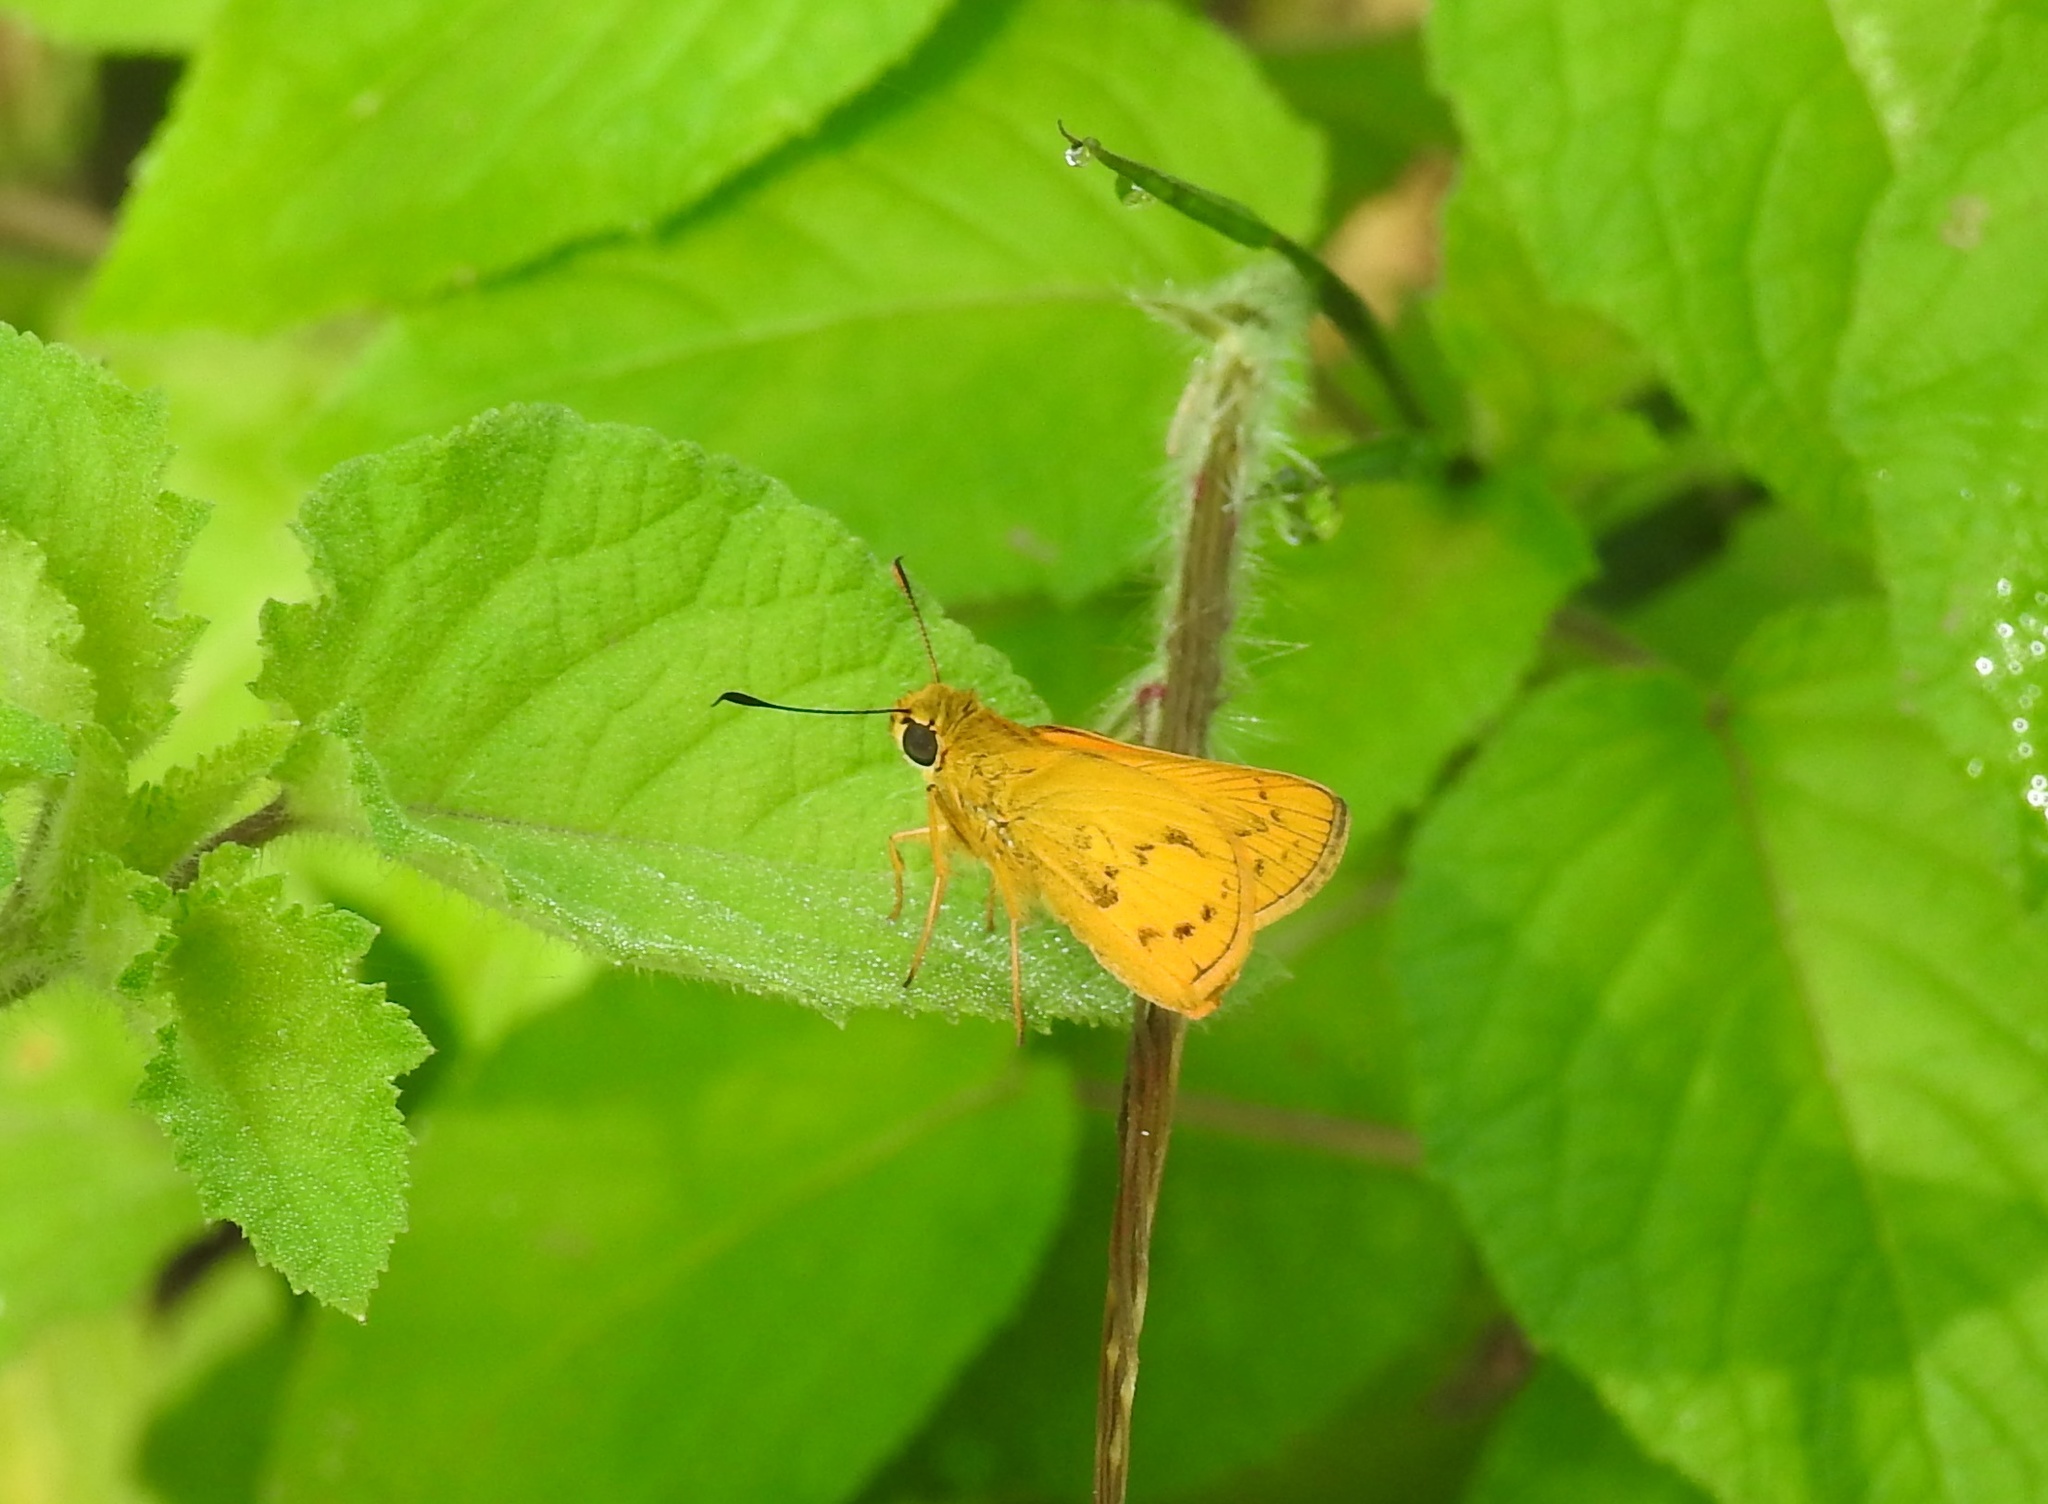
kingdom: Animalia
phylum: Arthropoda
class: Insecta
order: Lepidoptera
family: Hesperiidae
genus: Telicota
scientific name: Telicota bambusae
